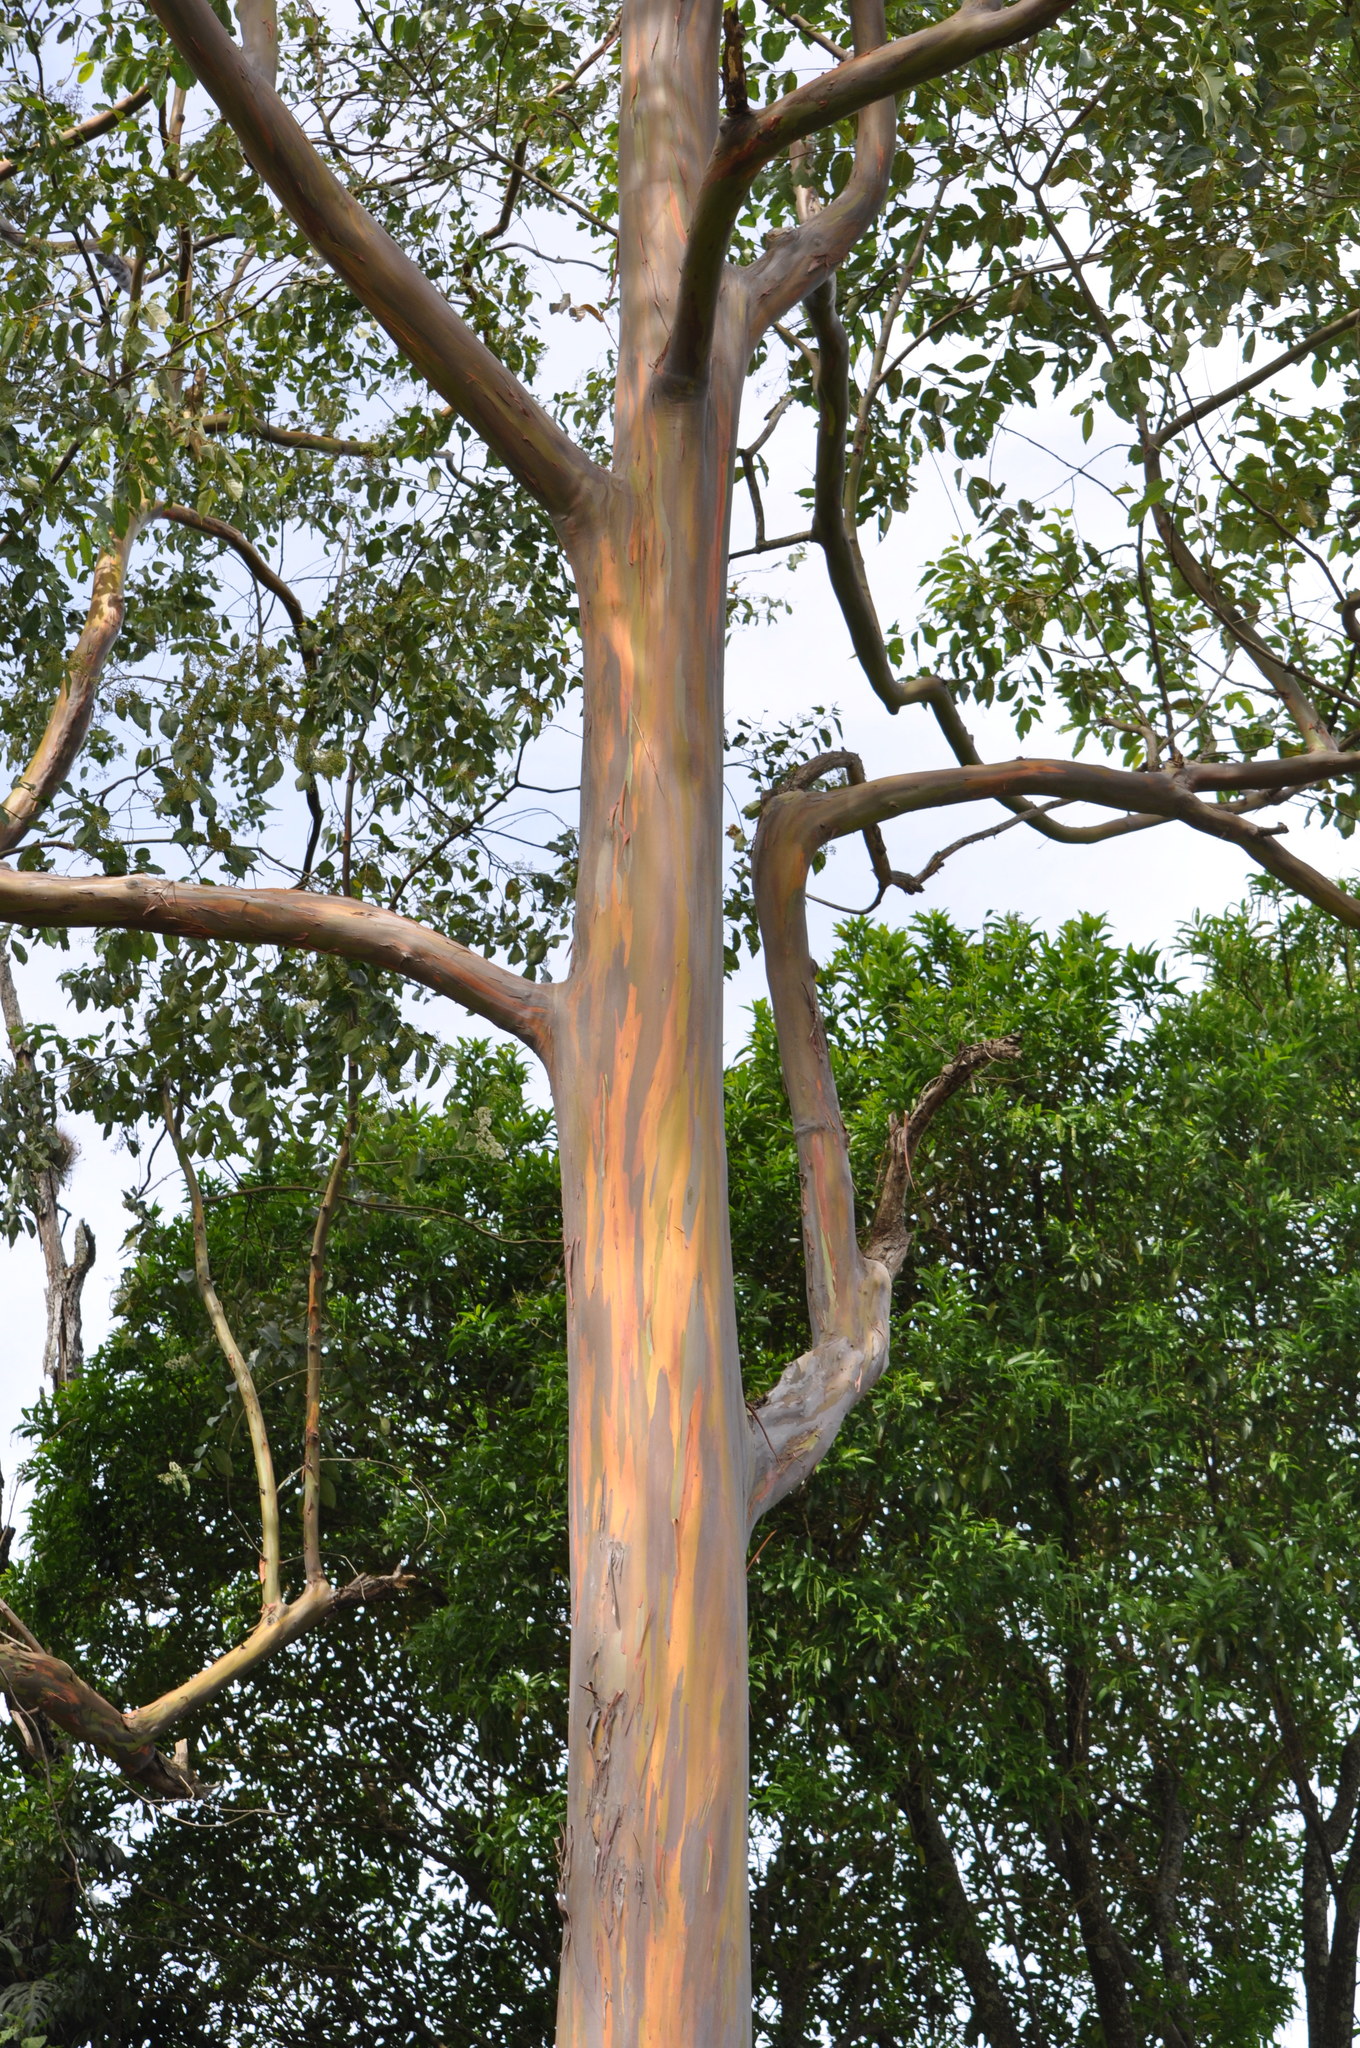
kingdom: Plantae
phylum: Tracheophyta
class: Magnoliopsida
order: Myrtales
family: Myrtaceae
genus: Eucalyptus
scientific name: Eucalyptus deglupta
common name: Mindanao gum
